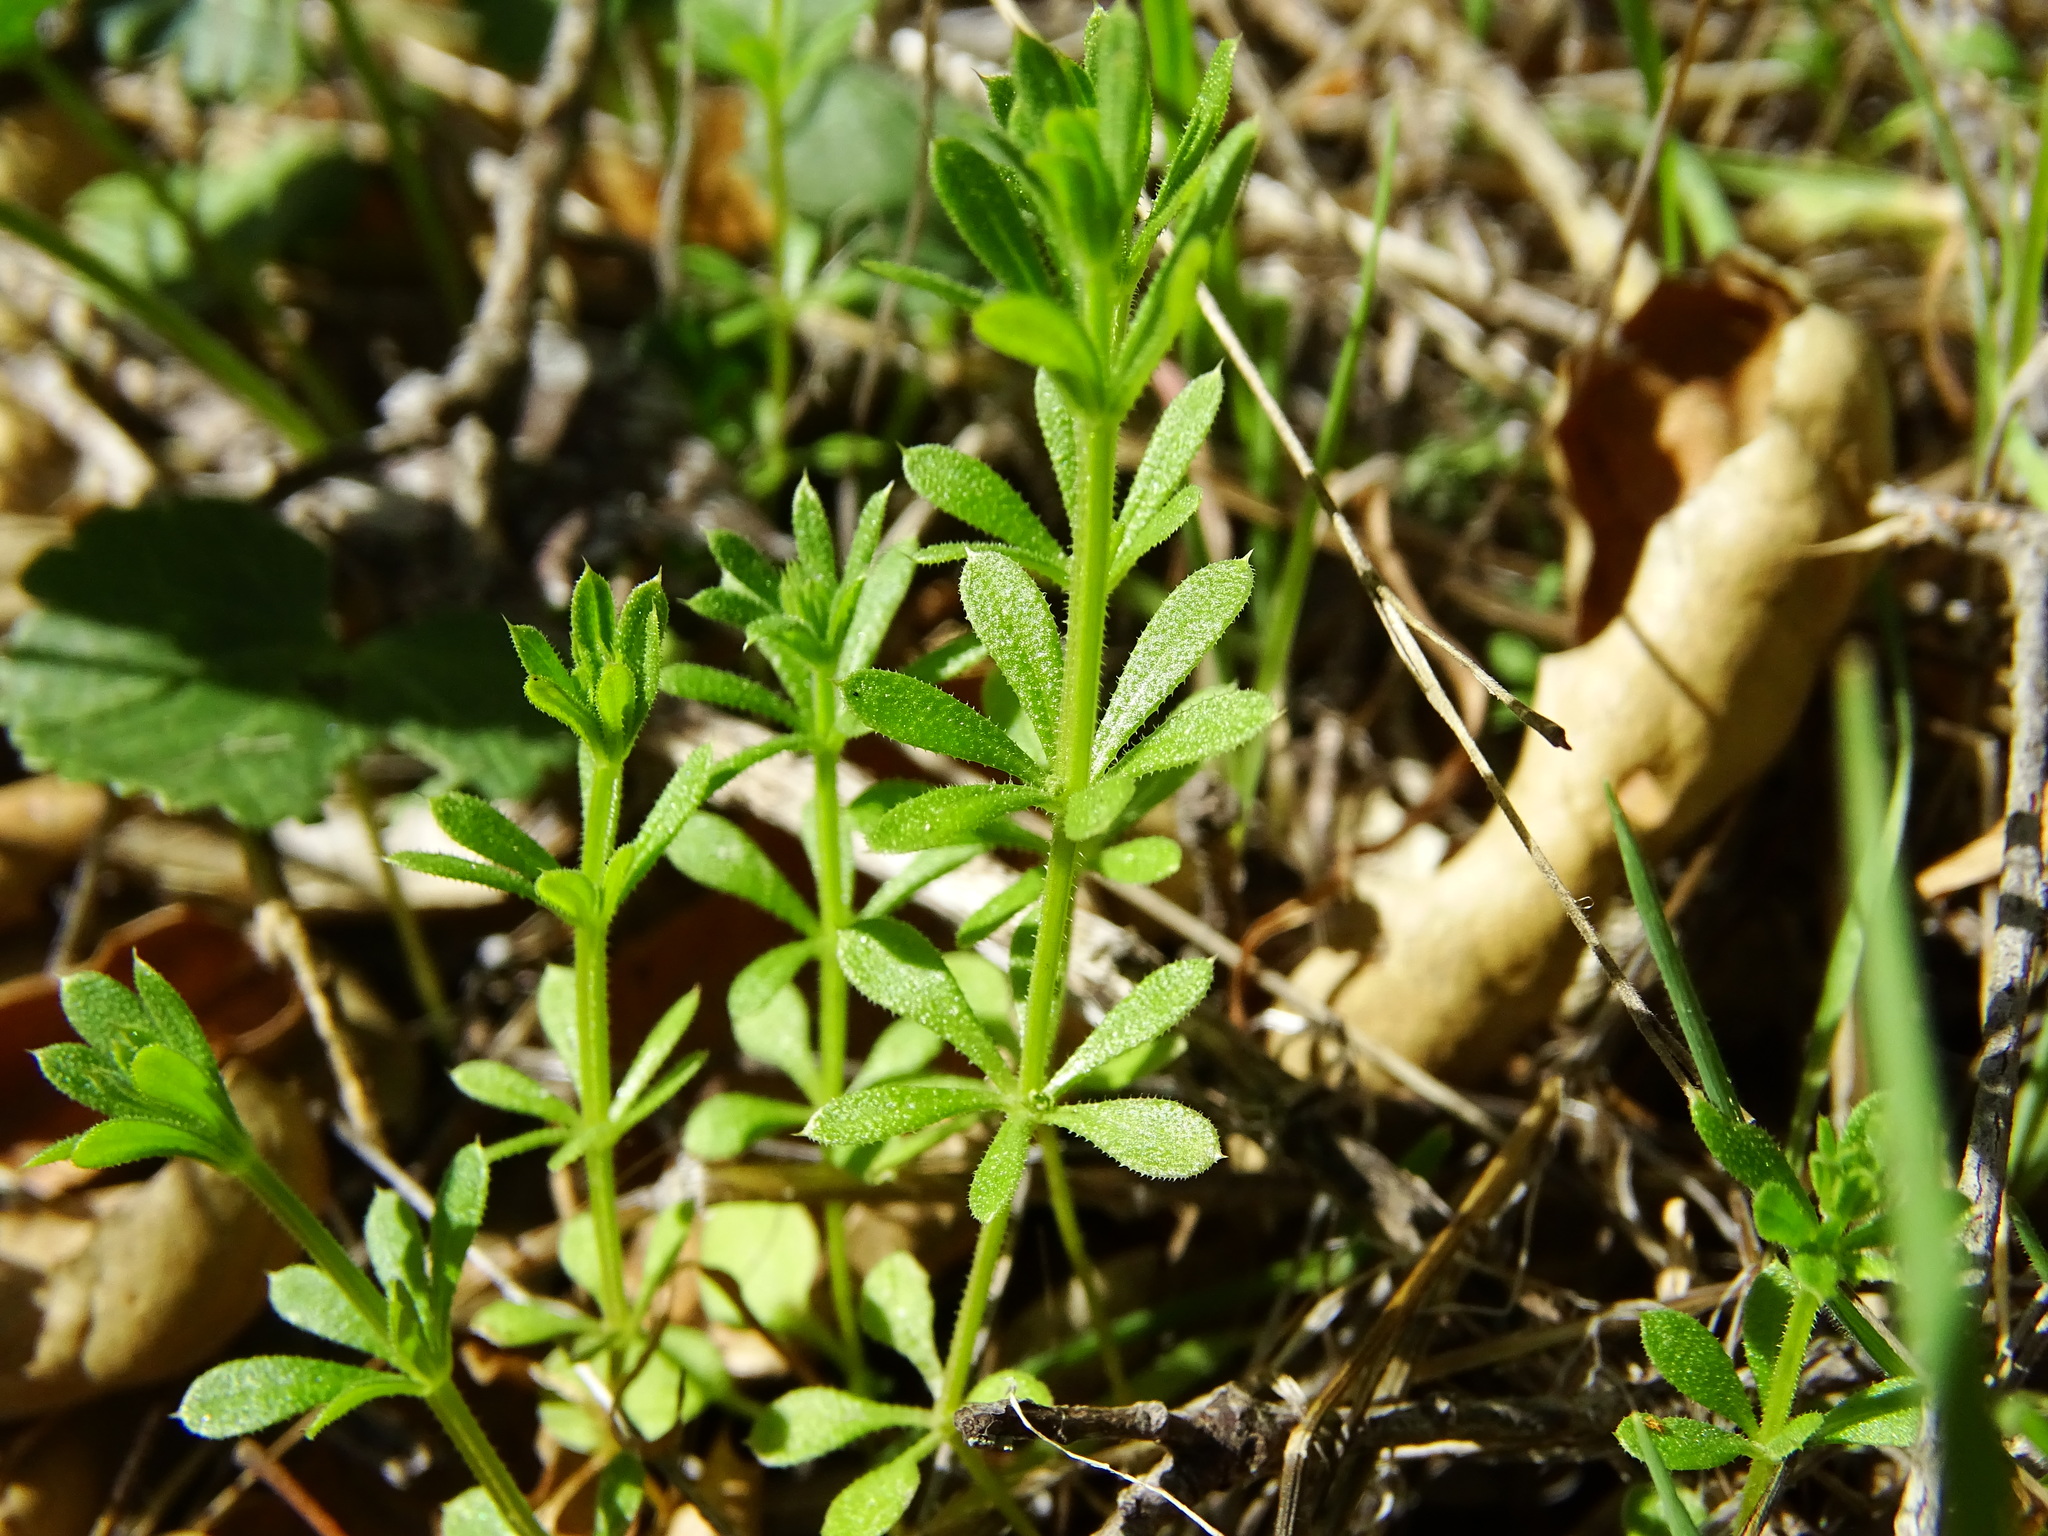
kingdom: Plantae
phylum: Tracheophyta
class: Magnoliopsida
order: Gentianales
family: Rubiaceae
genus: Galium
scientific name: Galium aparine
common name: Cleavers
